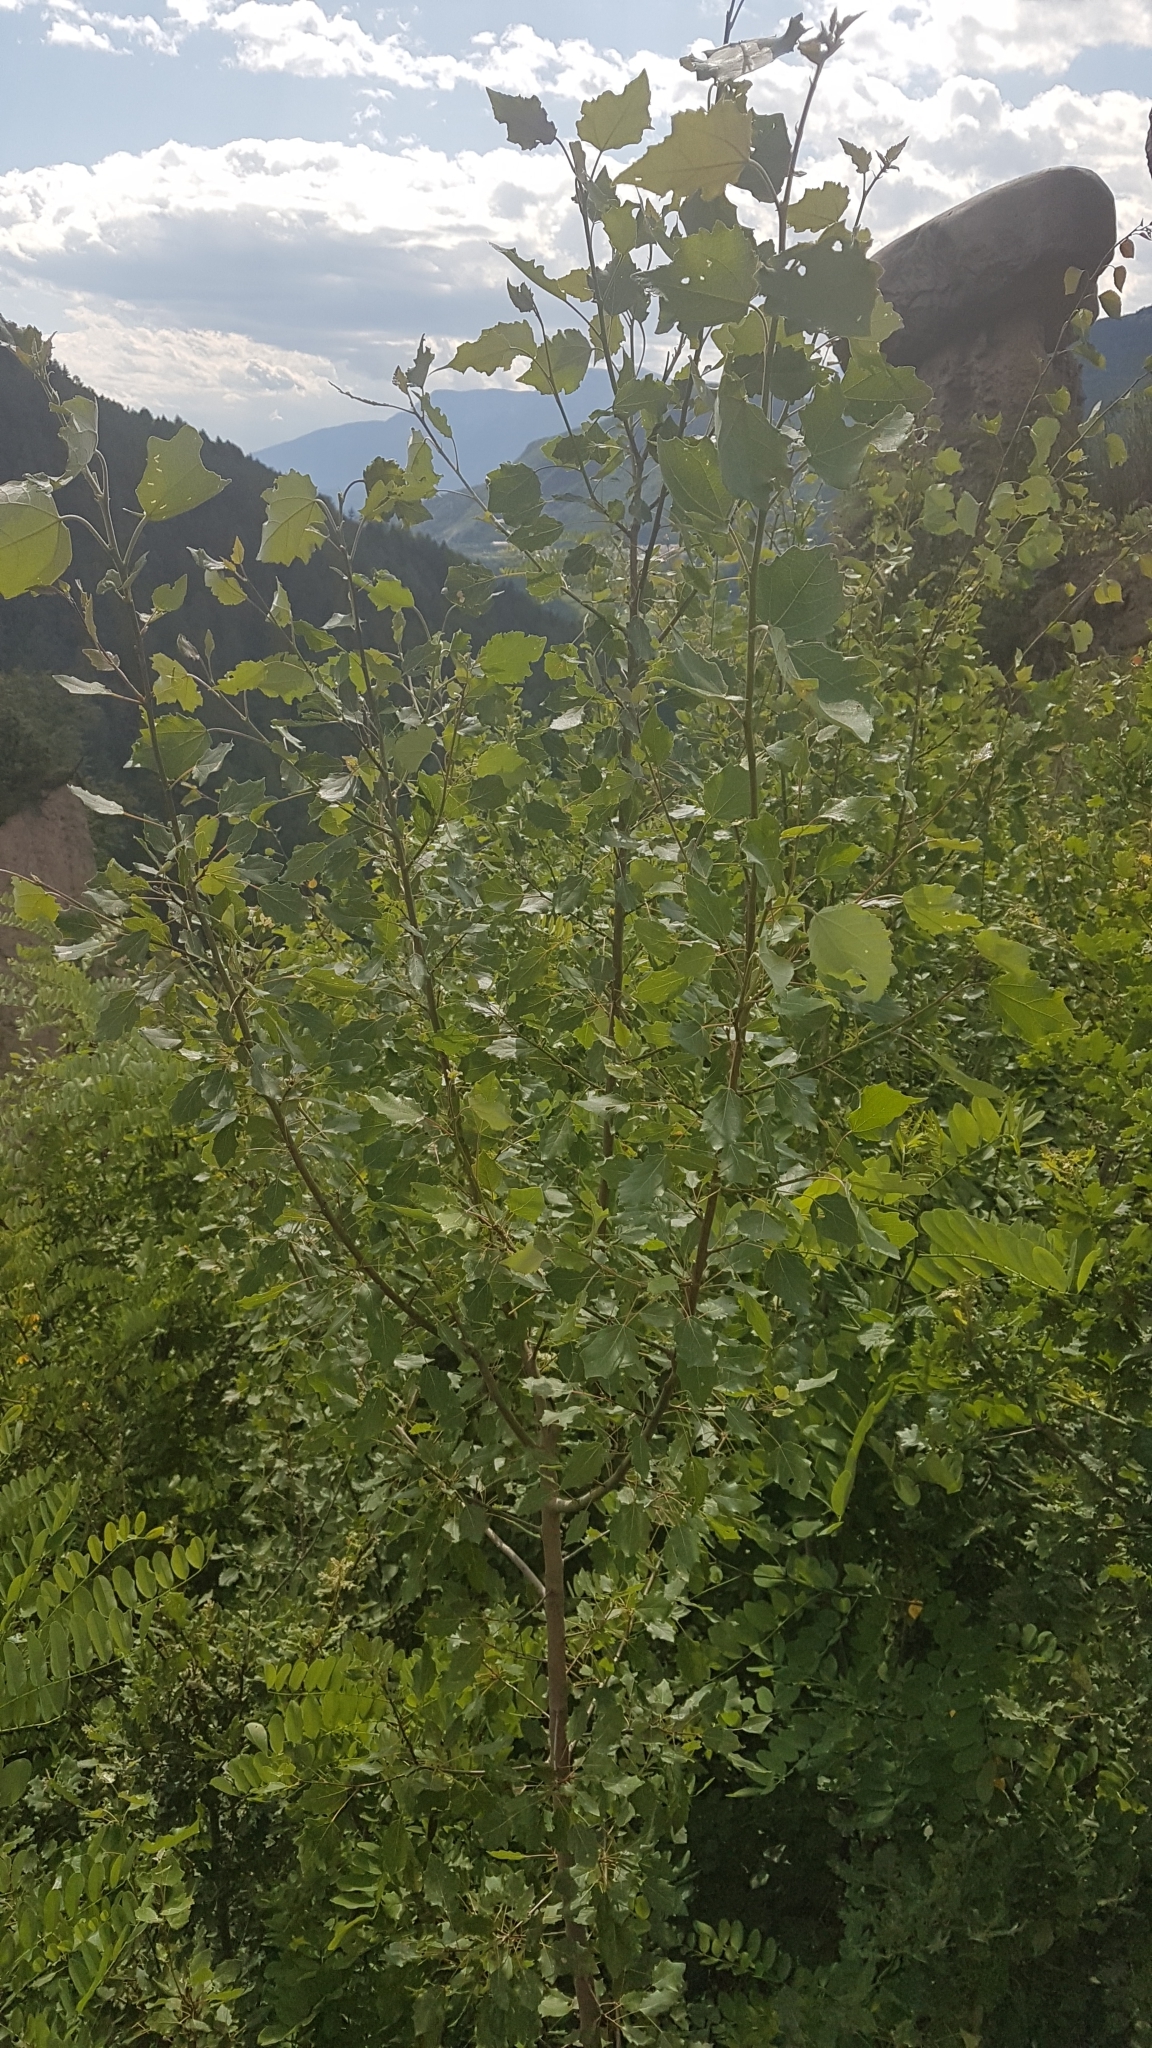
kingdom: Plantae
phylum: Tracheophyta
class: Magnoliopsida
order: Malpighiales
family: Salicaceae
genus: Populus
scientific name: Populus tremula
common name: European aspen
